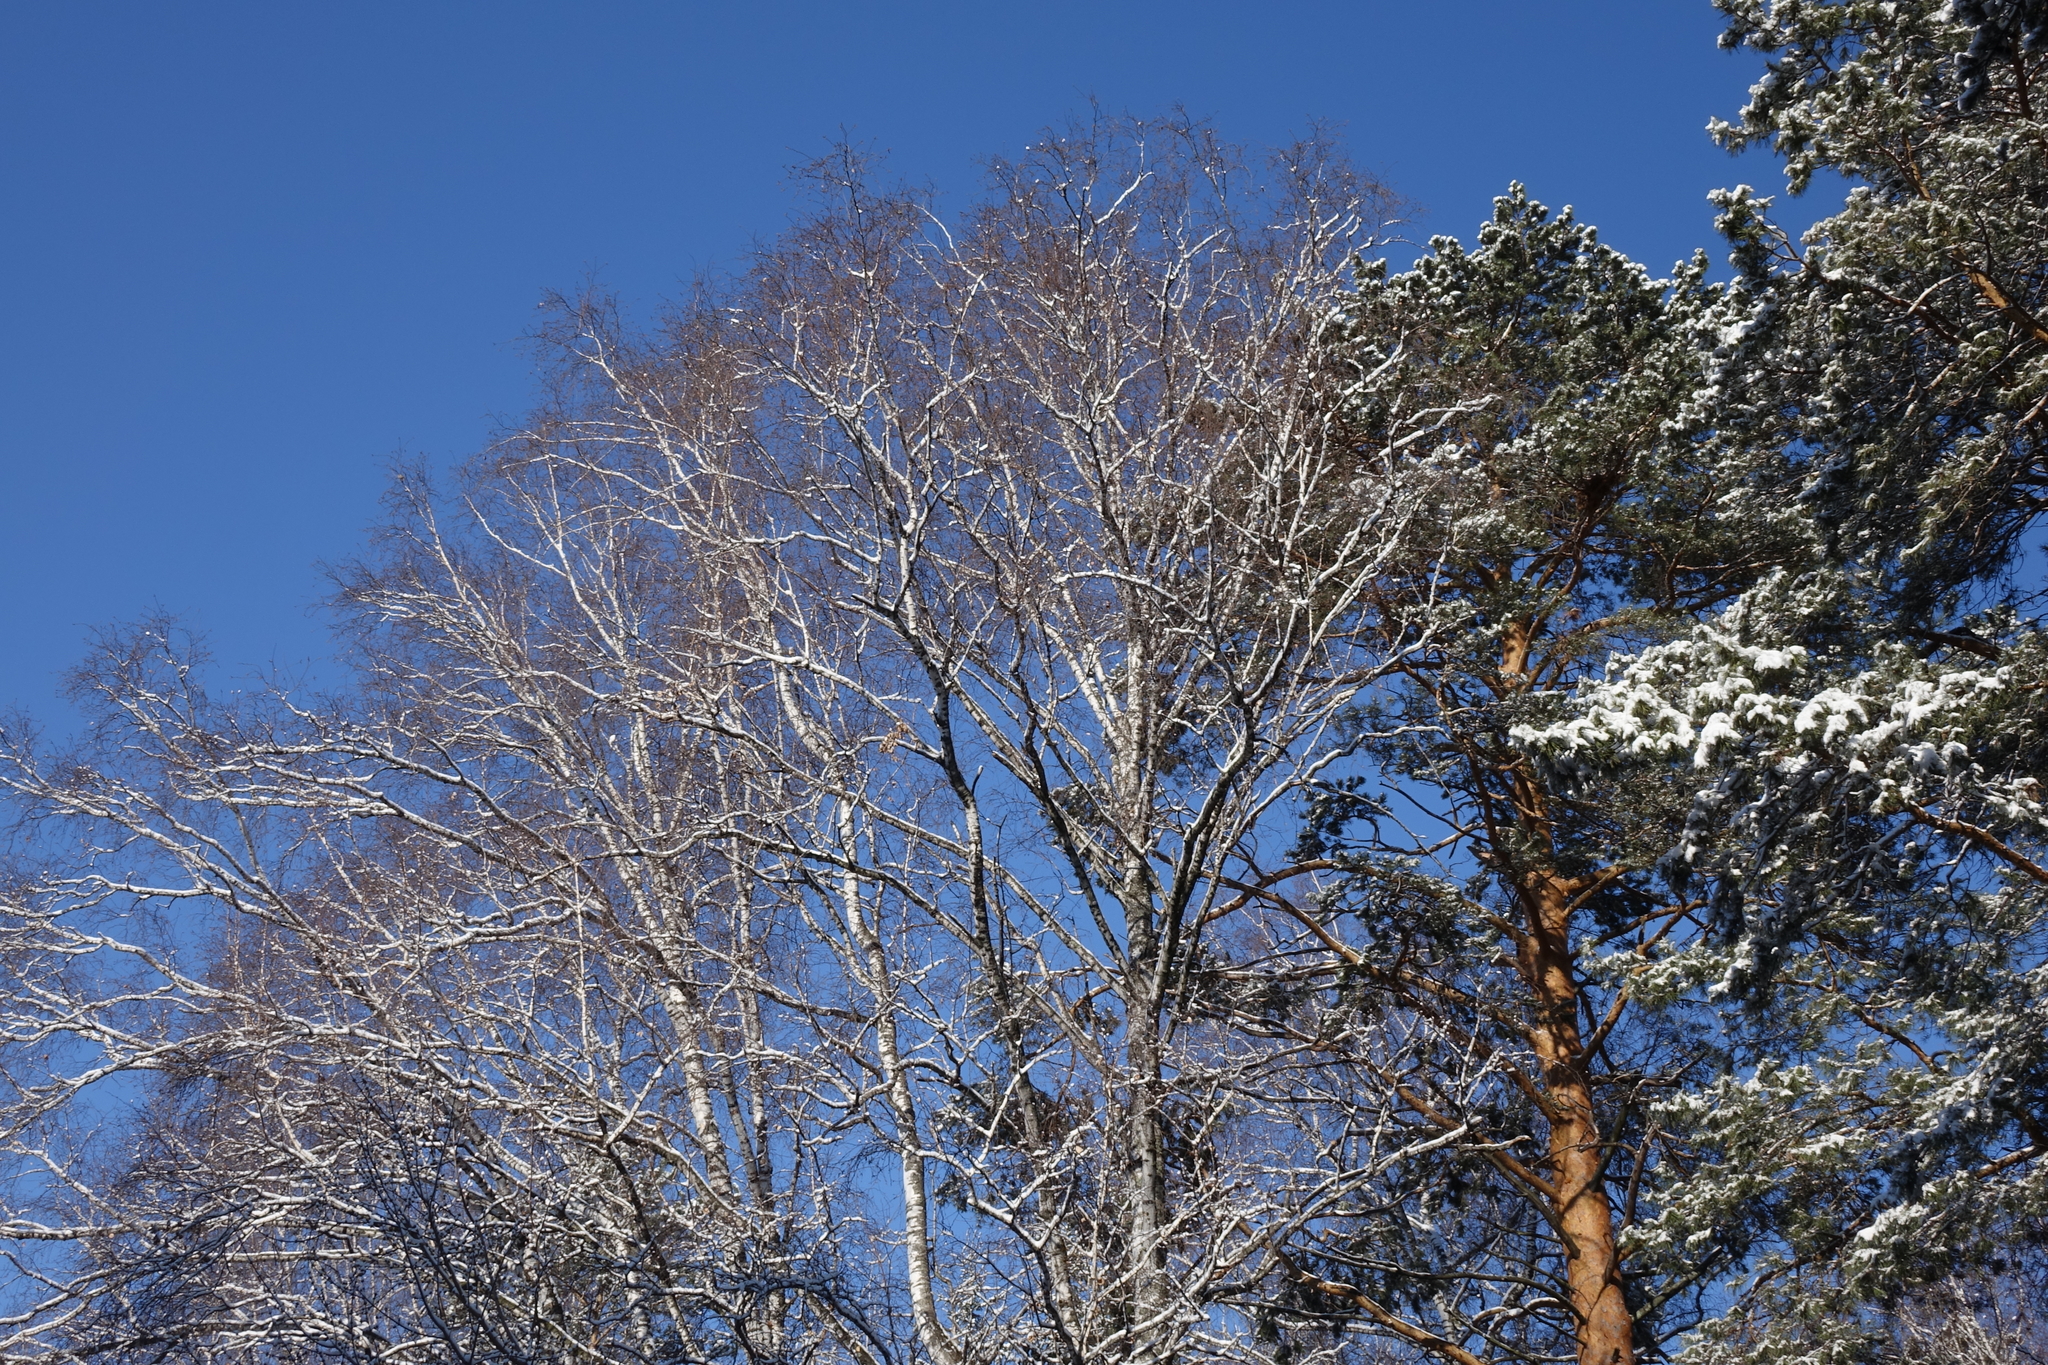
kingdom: Plantae
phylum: Tracheophyta
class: Magnoliopsida
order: Fagales
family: Betulaceae
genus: Betula
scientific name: Betula pendula
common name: Silver birch
